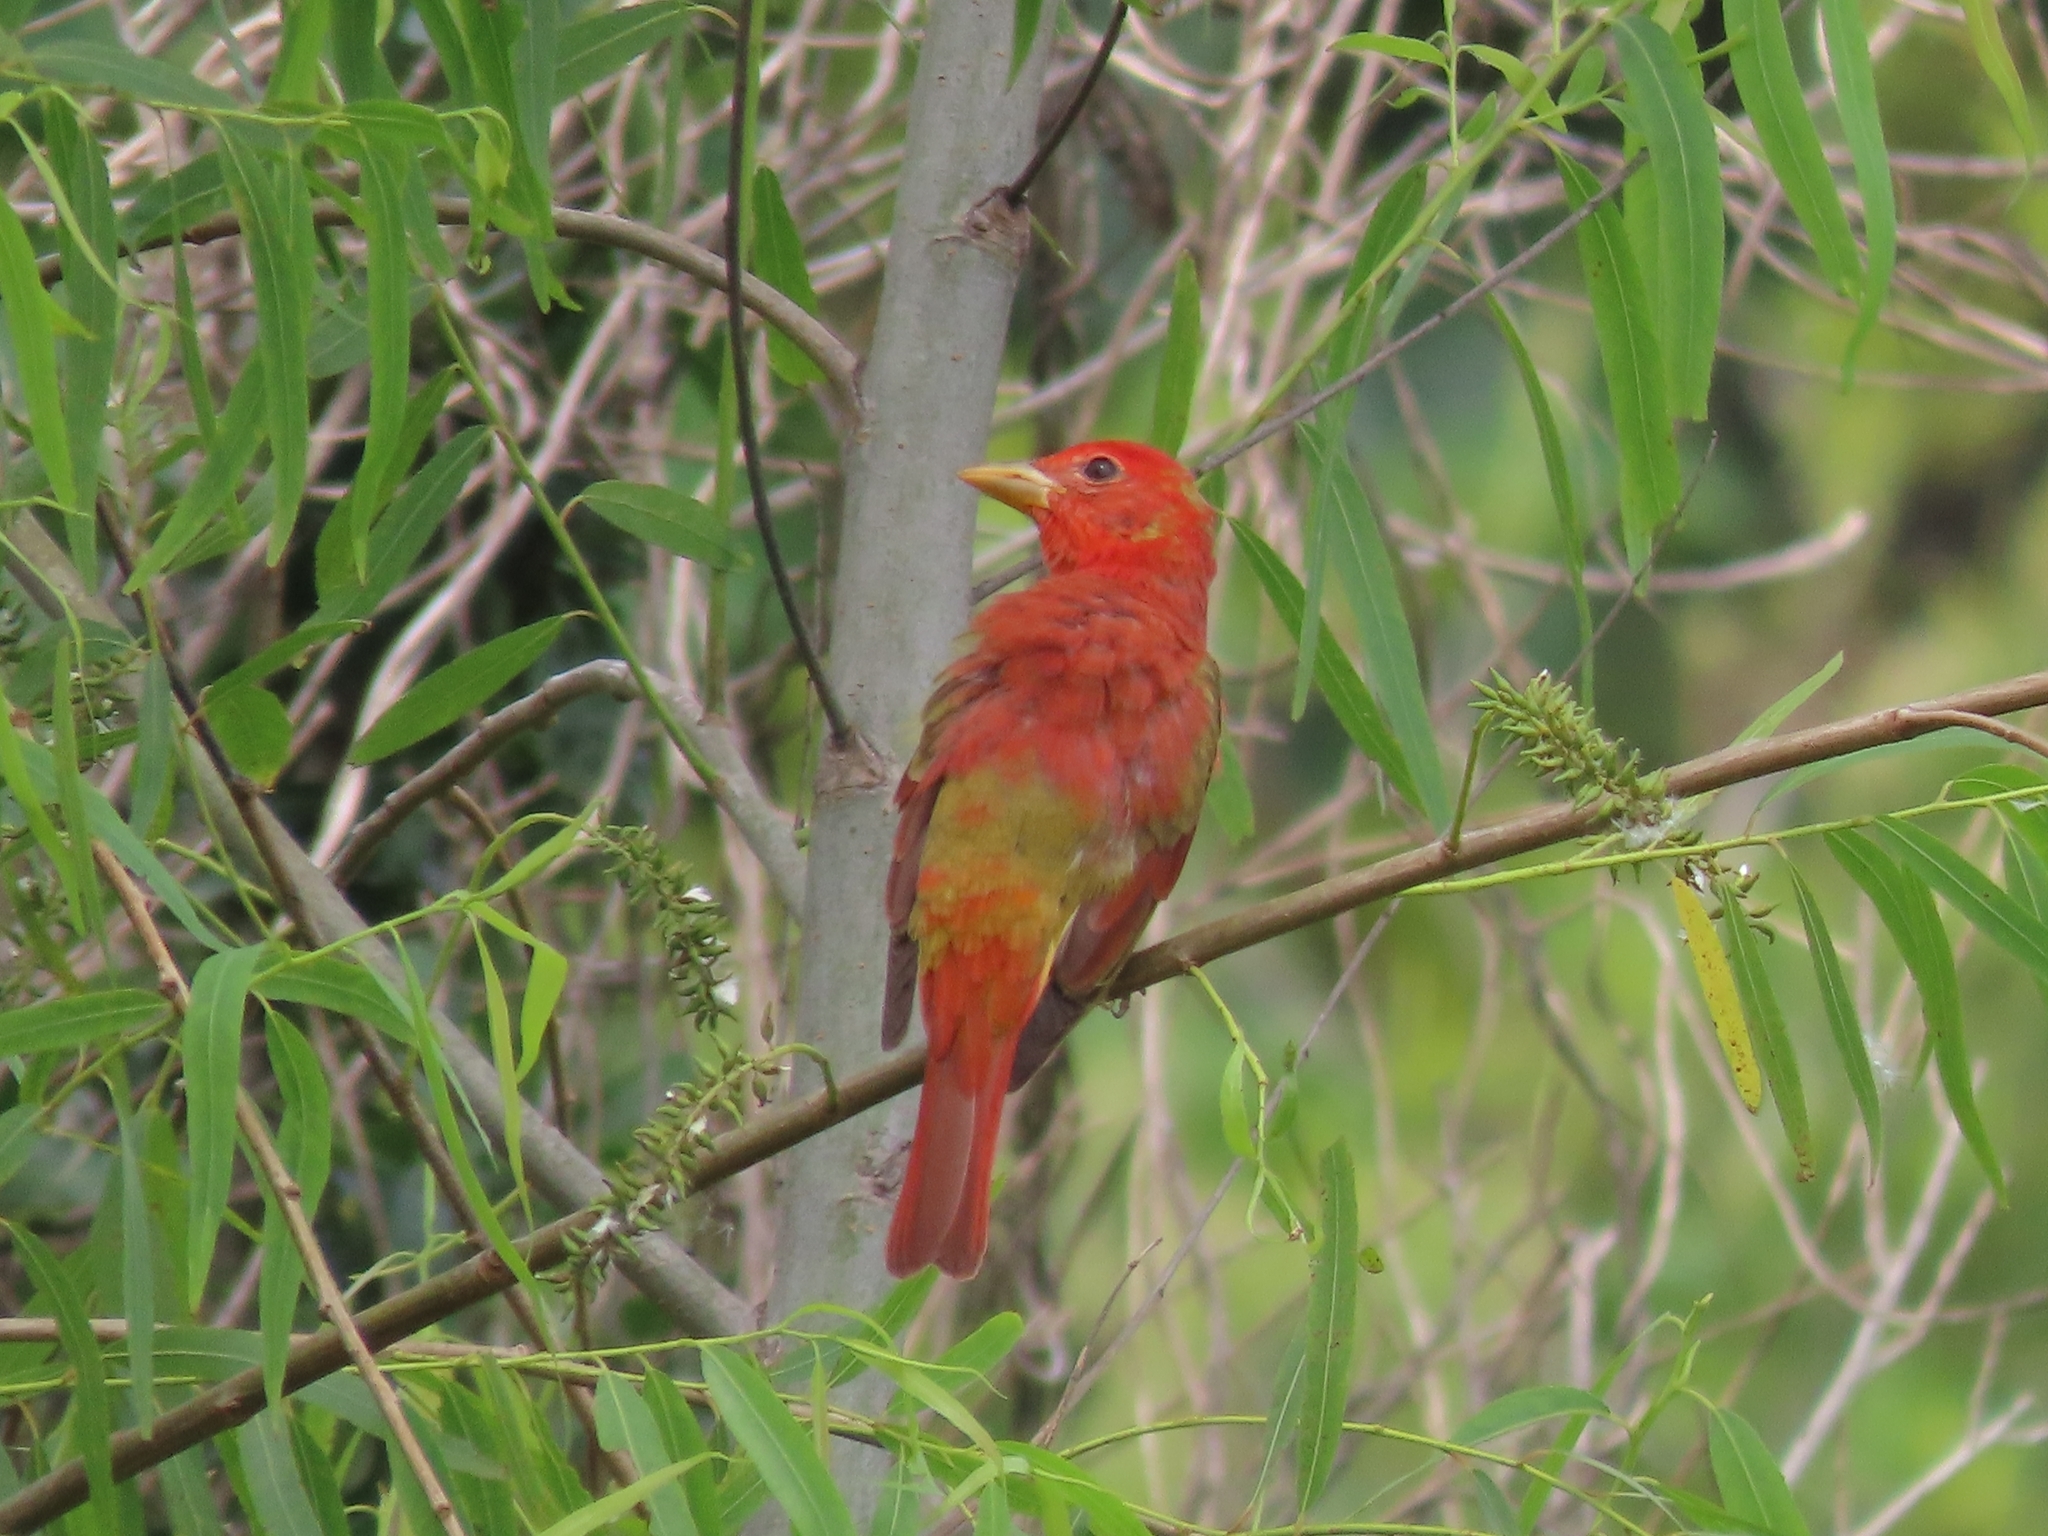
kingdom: Animalia
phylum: Chordata
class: Aves
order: Passeriformes
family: Cardinalidae
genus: Piranga
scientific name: Piranga rubra
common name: Summer tanager
